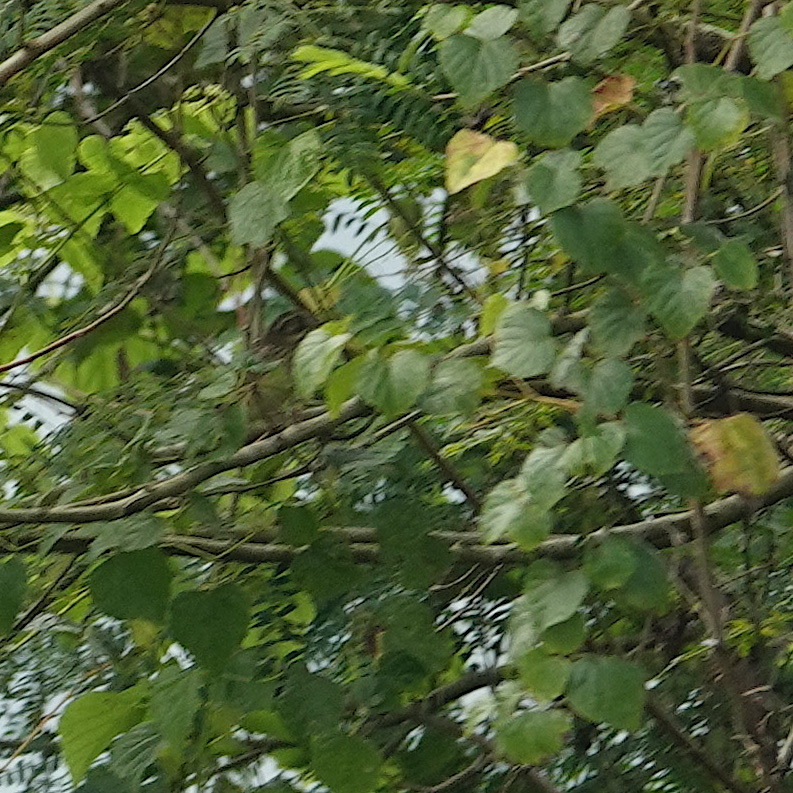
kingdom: Animalia
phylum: Chordata
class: Aves
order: Passeriformes
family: Emberizidae
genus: Emberiza
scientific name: Emberiza spodocephala
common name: Black-faced bunting
